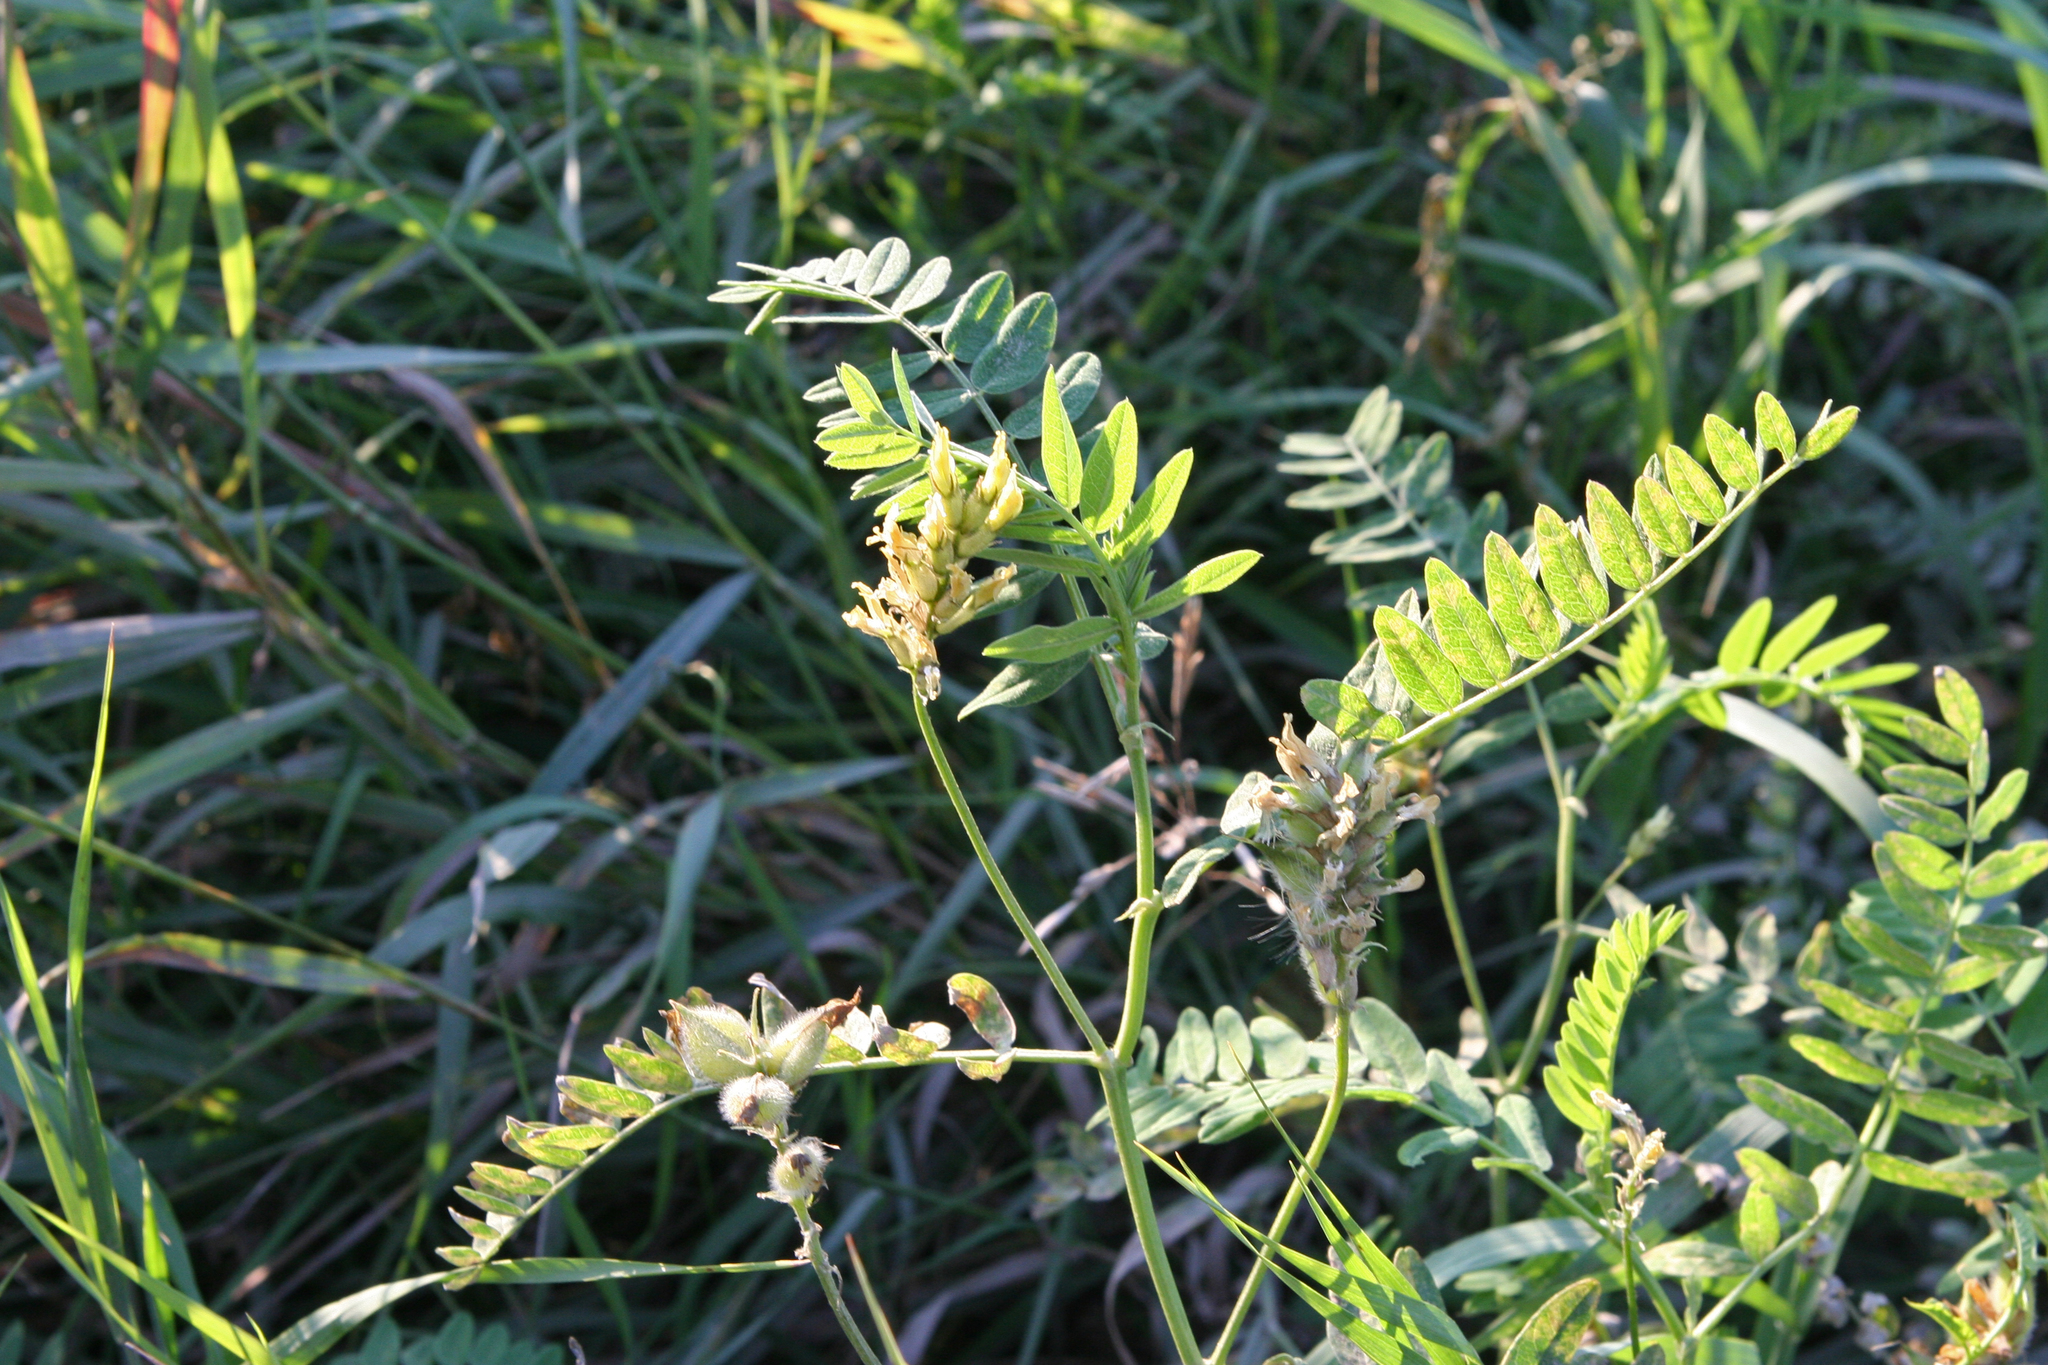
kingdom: Plantae
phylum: Tracheophyta
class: Magnoliopsida
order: Fabales
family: Fabaceae
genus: Astragalus
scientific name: Astragalus cicer
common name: Chick-pea milk-vetch
